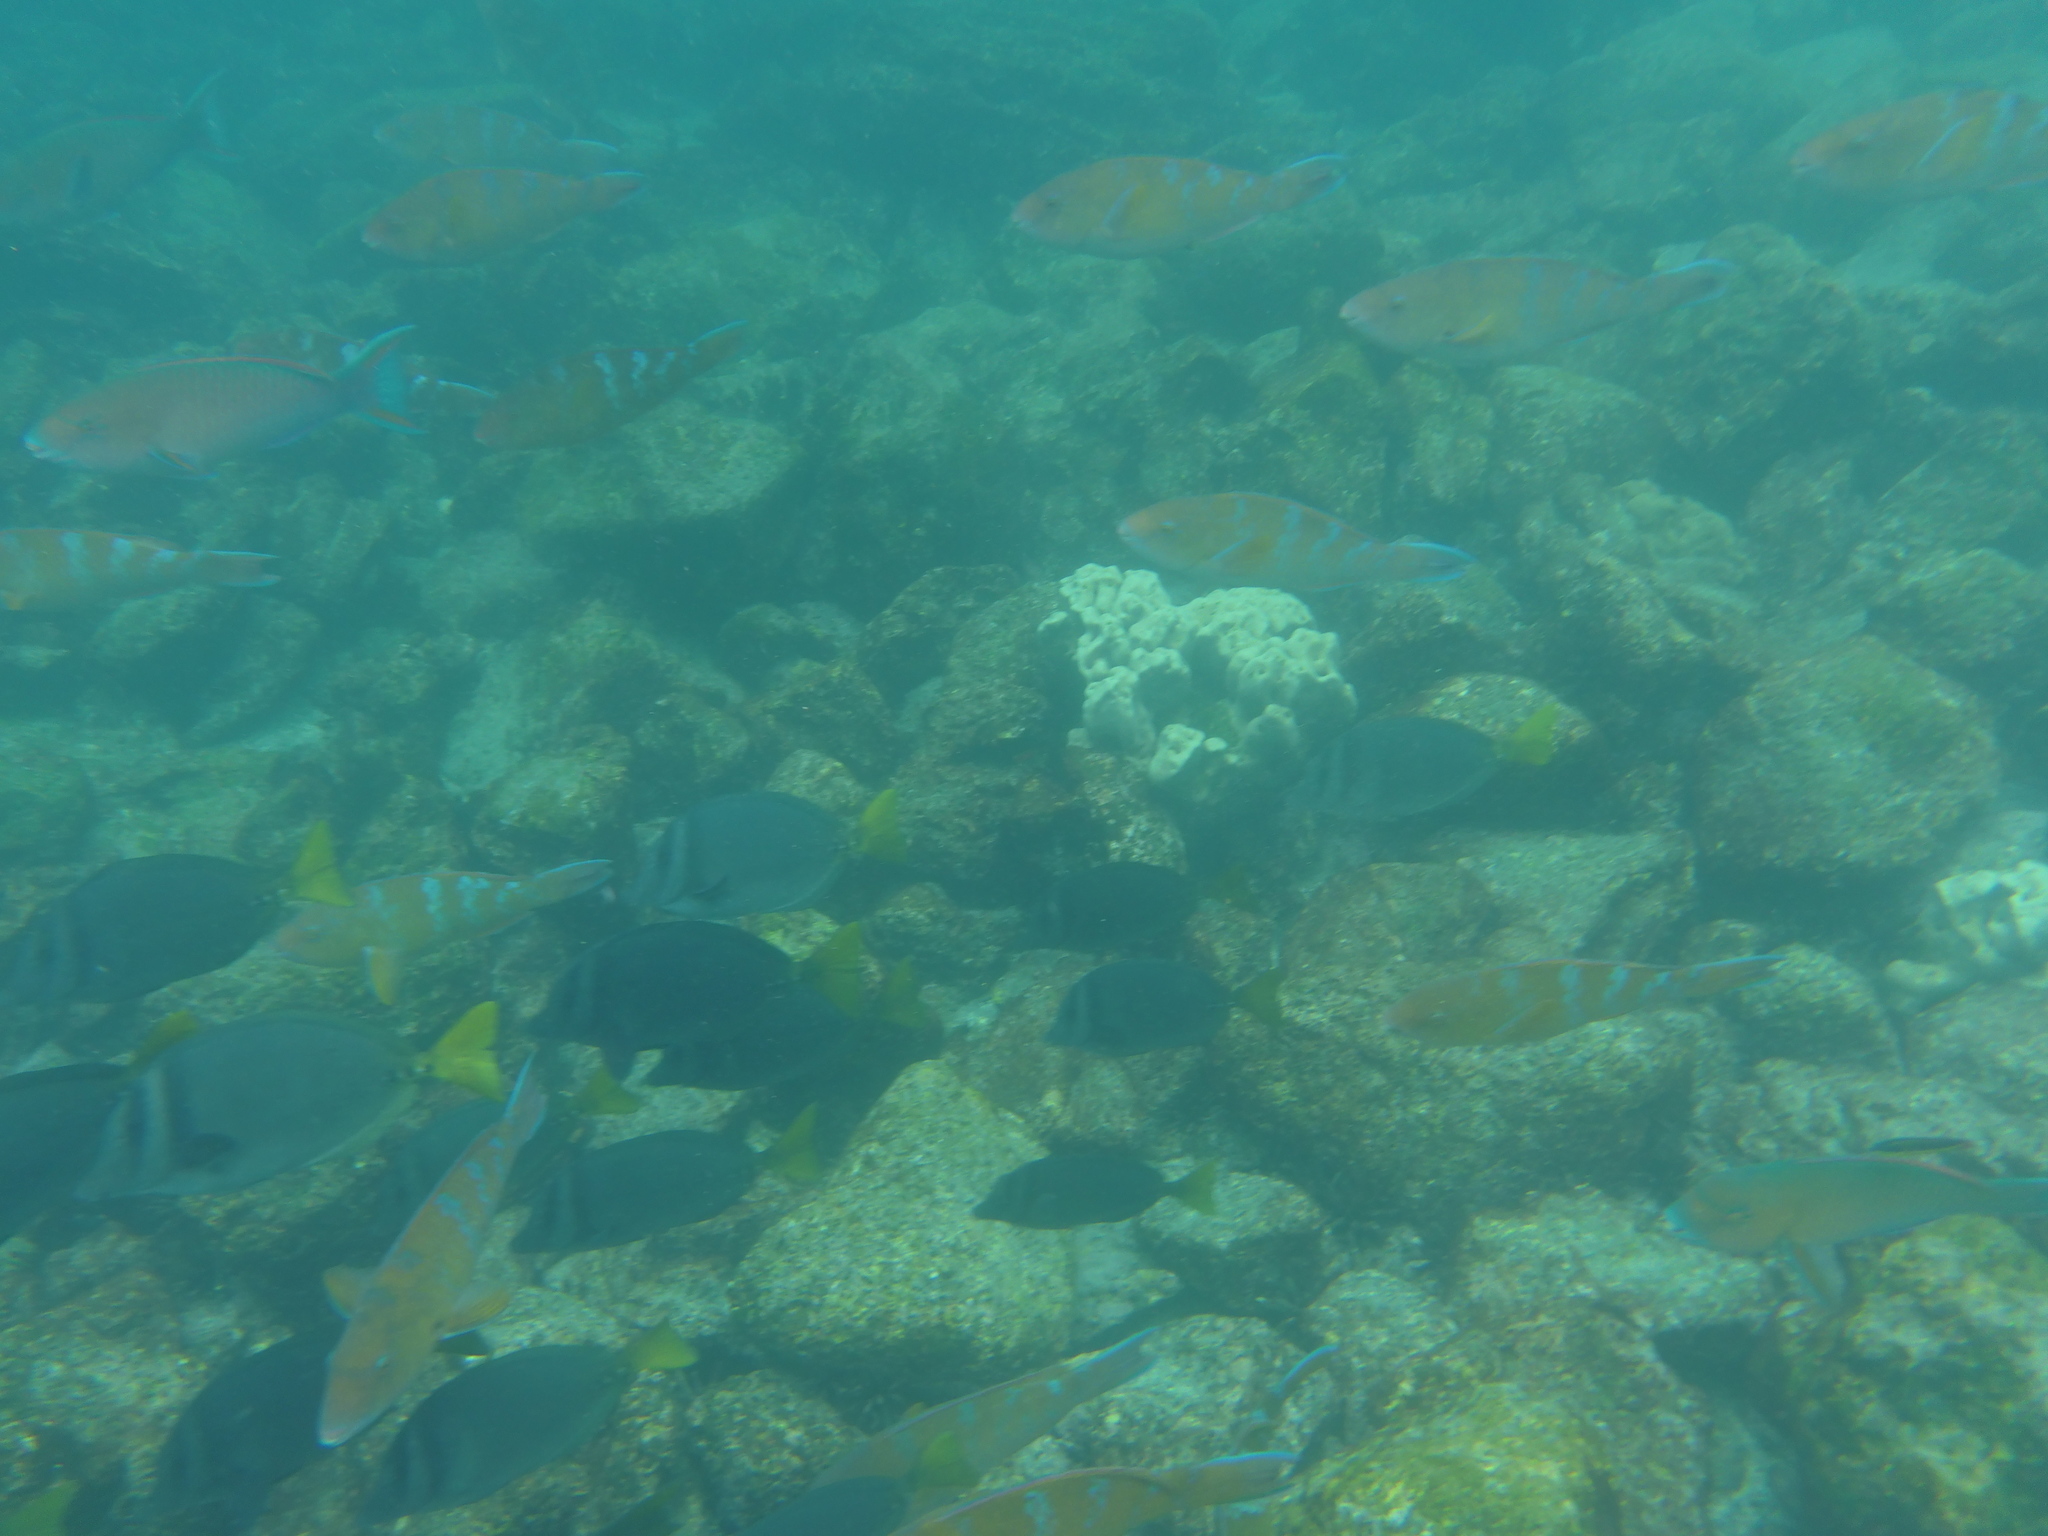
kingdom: Animalia
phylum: Chordata
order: Perciformes
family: Scaridae
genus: Scarus
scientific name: Scarus ghobban
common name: Blue-barred parrotfish
